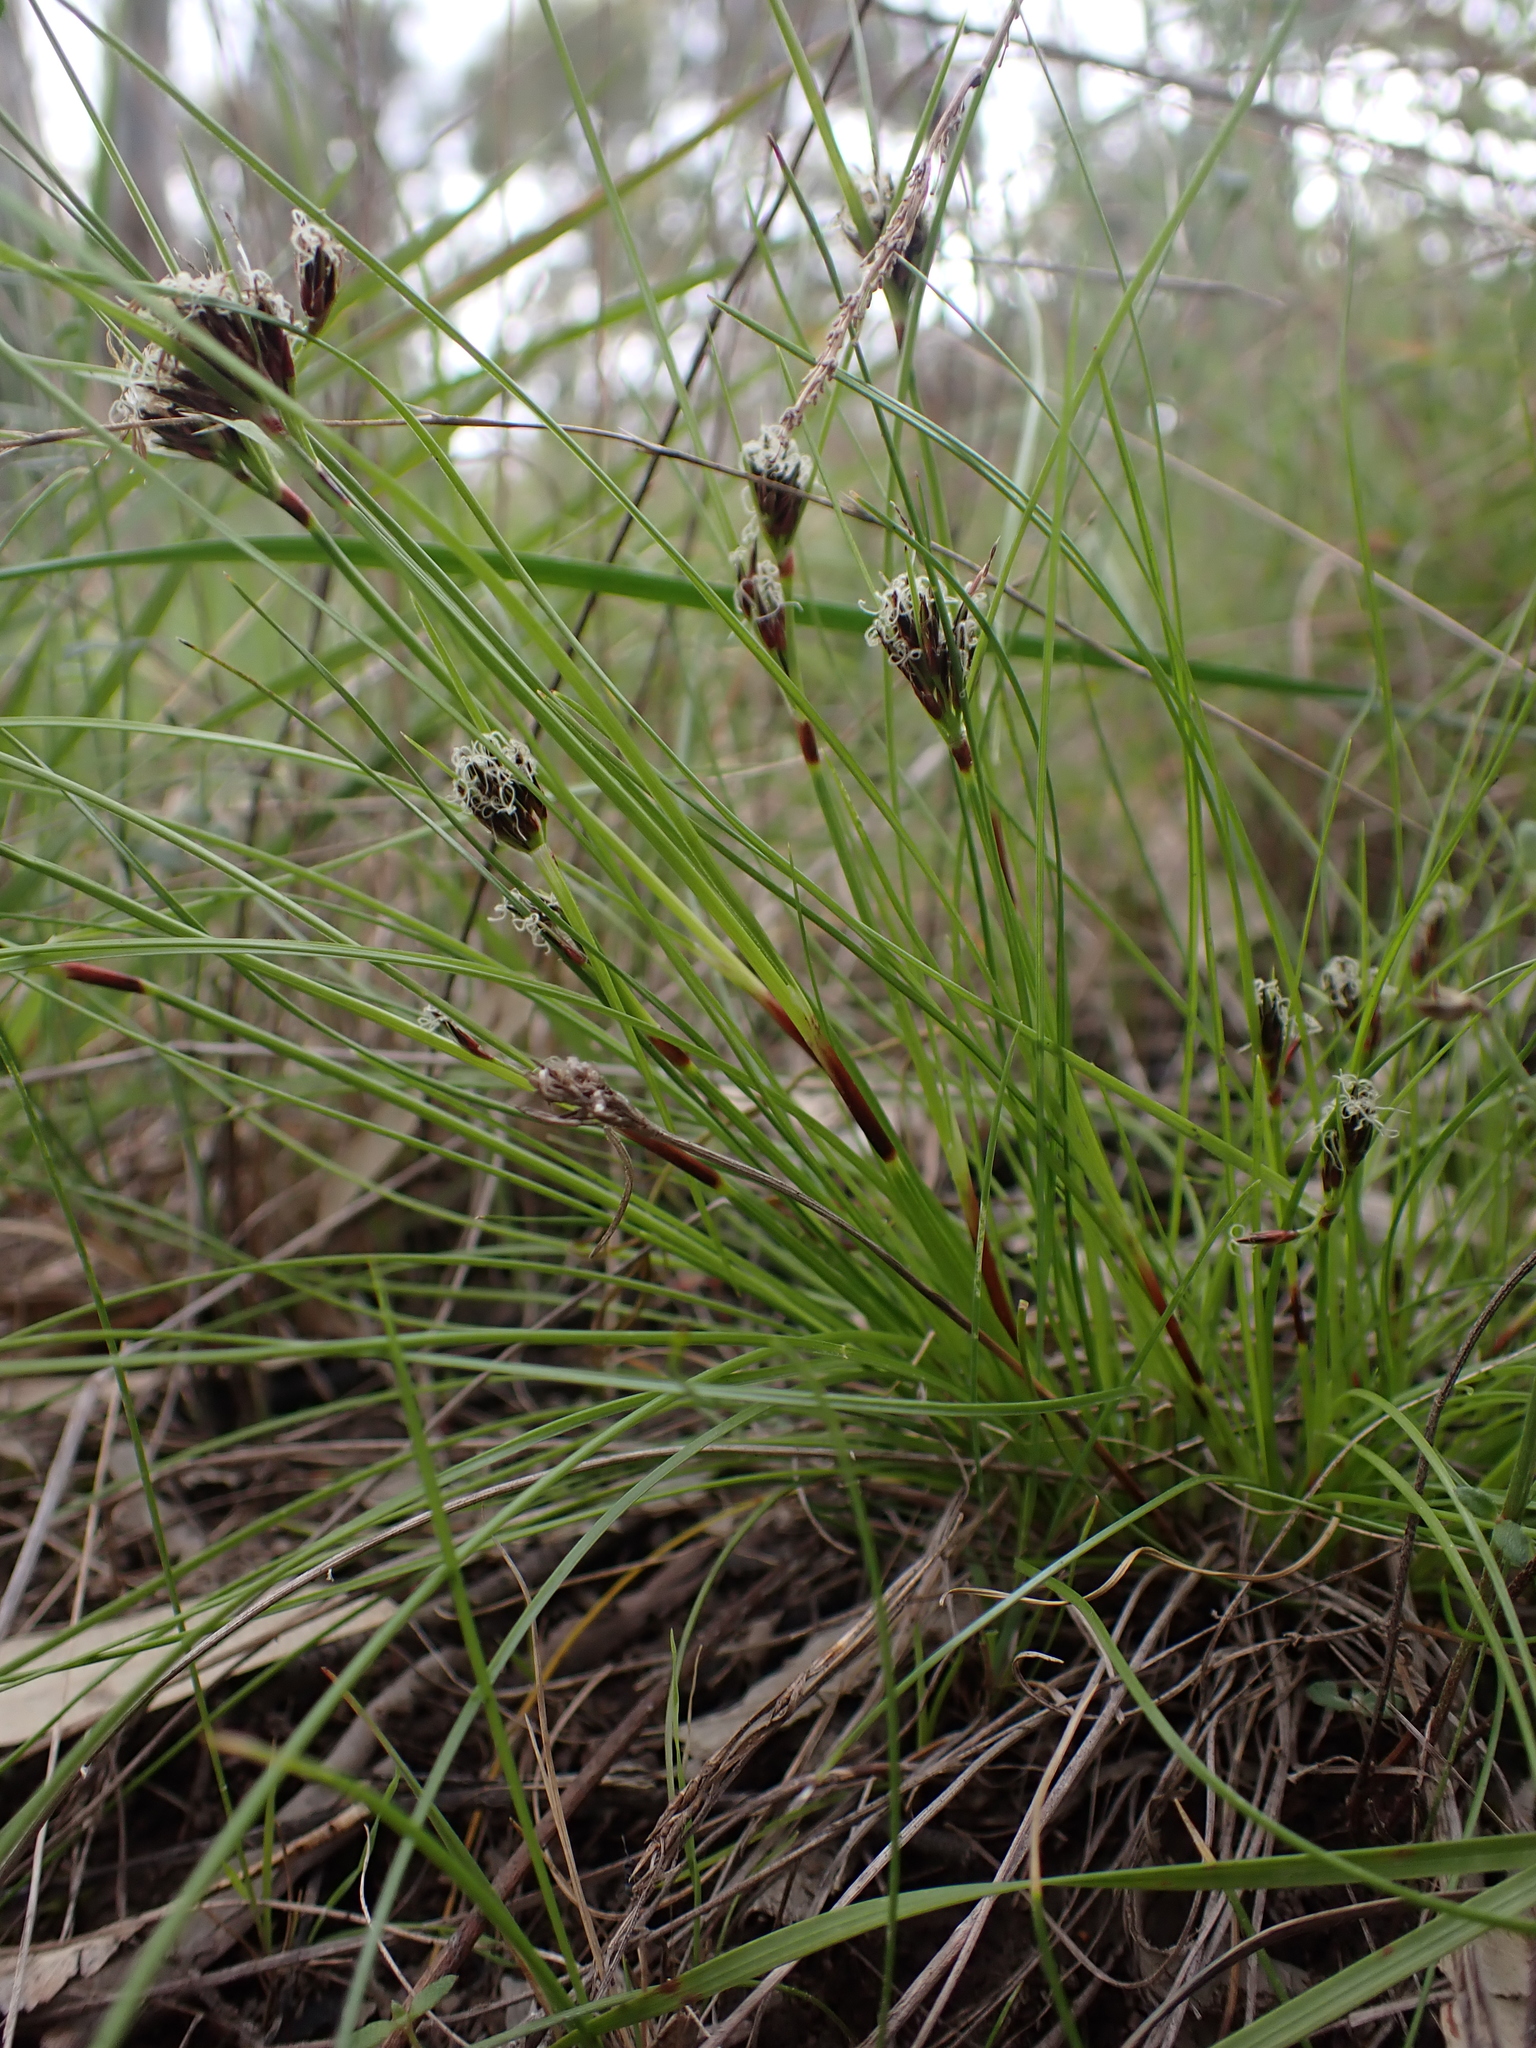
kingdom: Plantae
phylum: Tracheophyta
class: Liliopsida
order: Poales
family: Cyperaceae
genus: Schoenus
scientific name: Schoenus apogon
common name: Smooth bogrush
